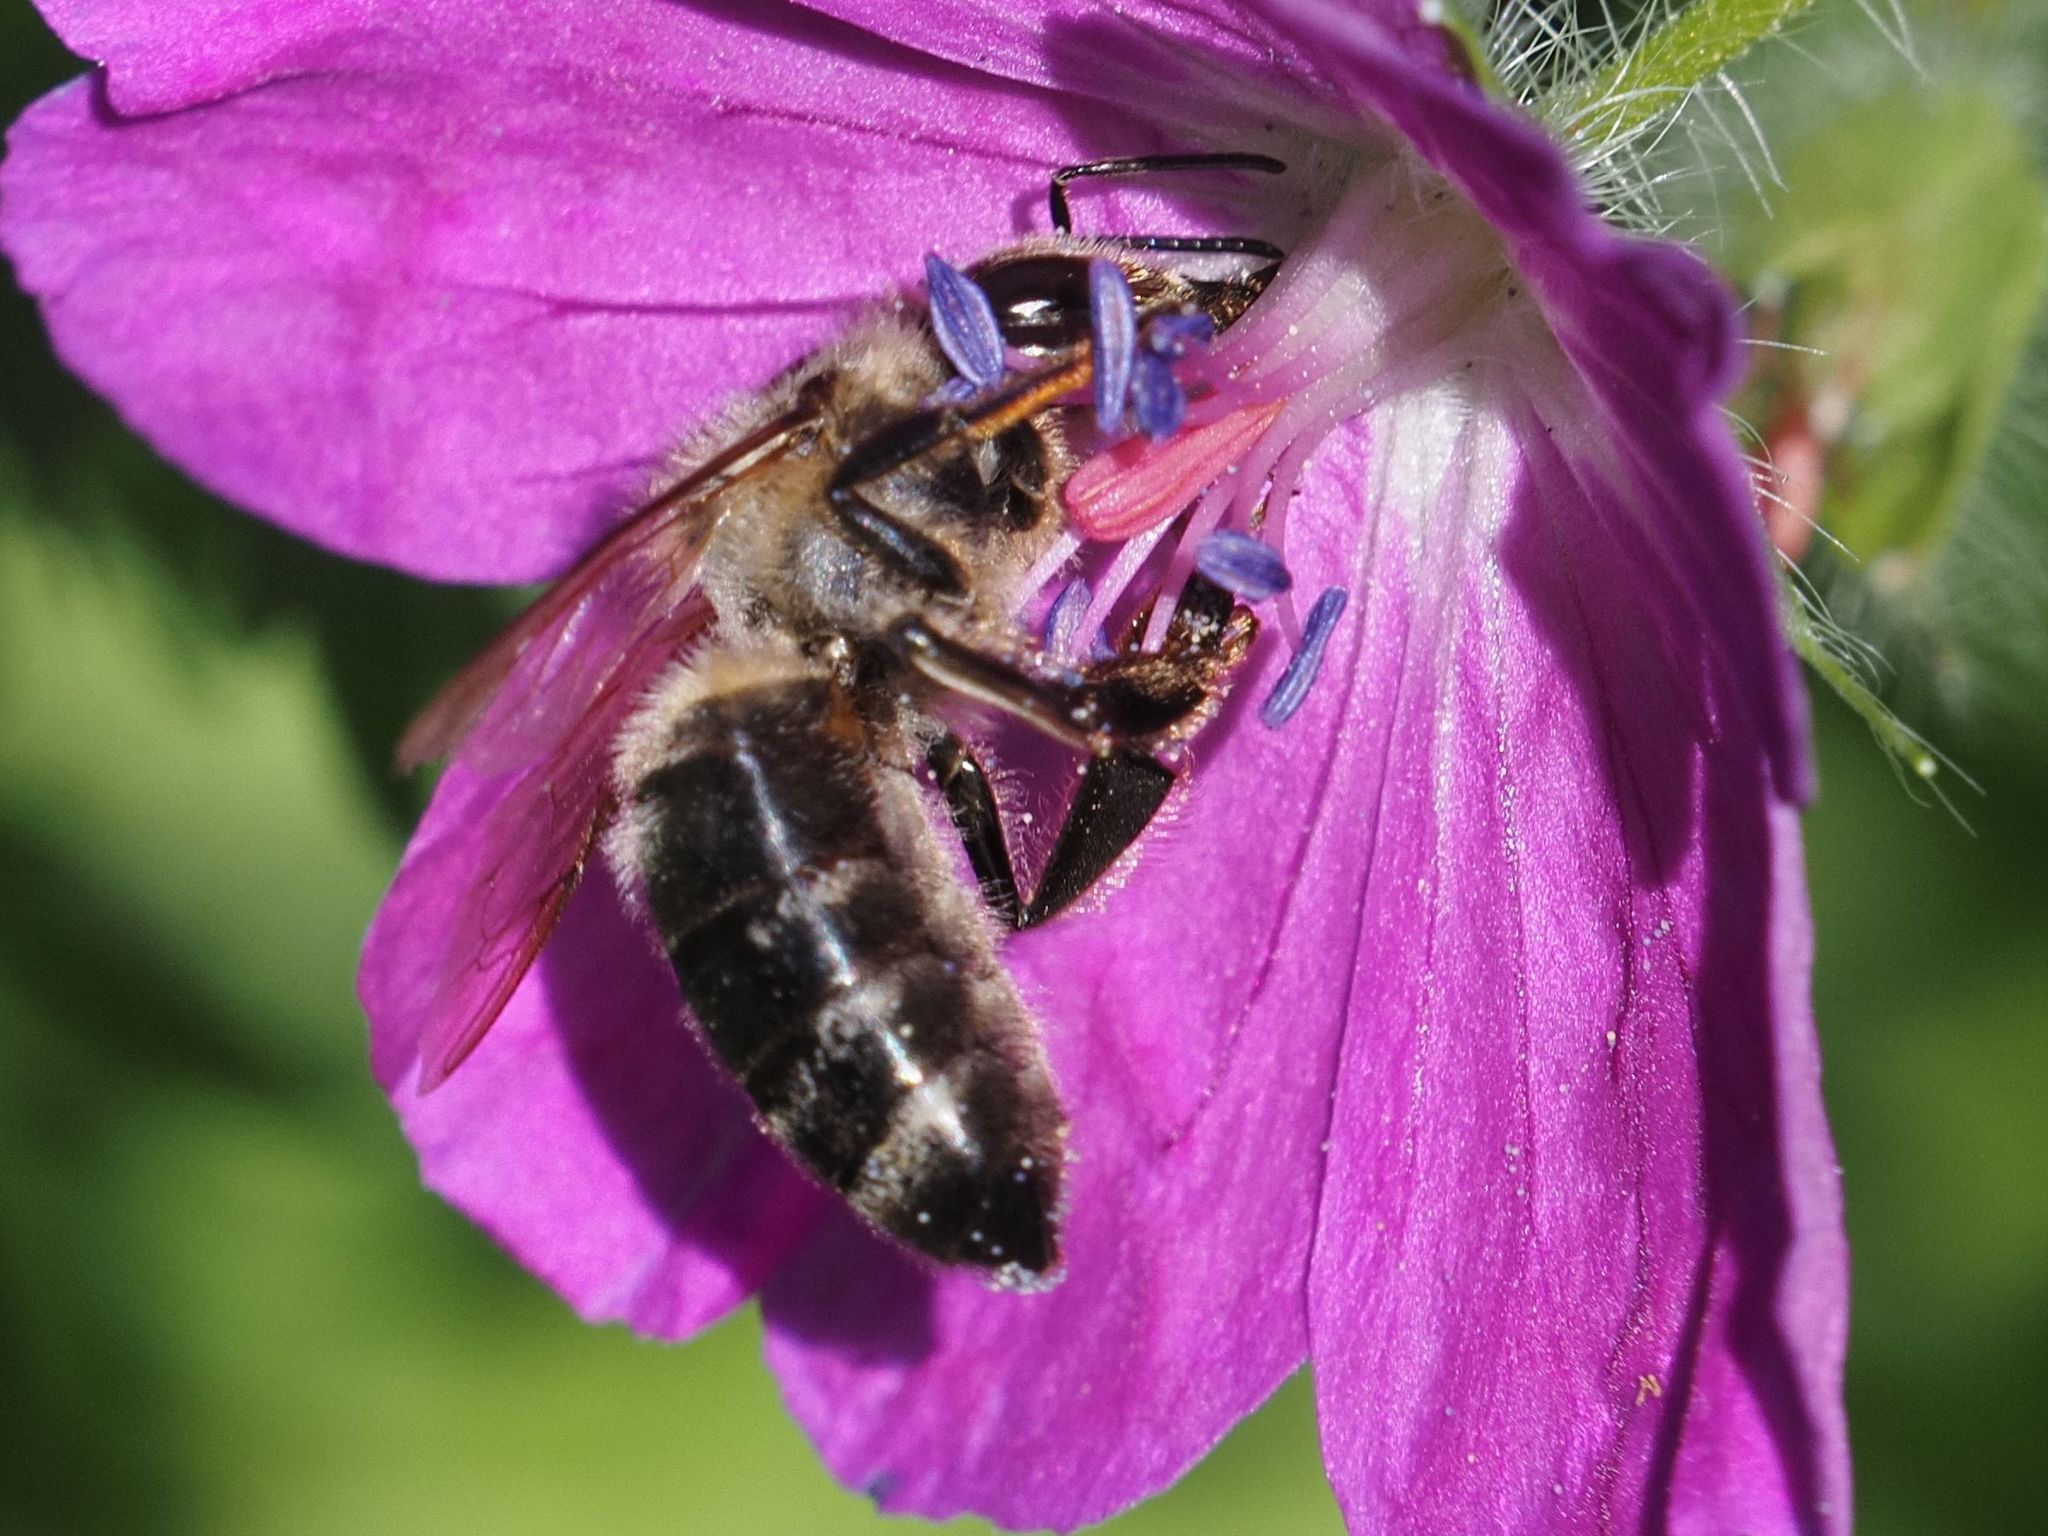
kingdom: Animalia
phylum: Arthropoda
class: Insecta
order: Hymenoptera
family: Apidae
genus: Apis
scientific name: Apis mellifera
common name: Honey bee
